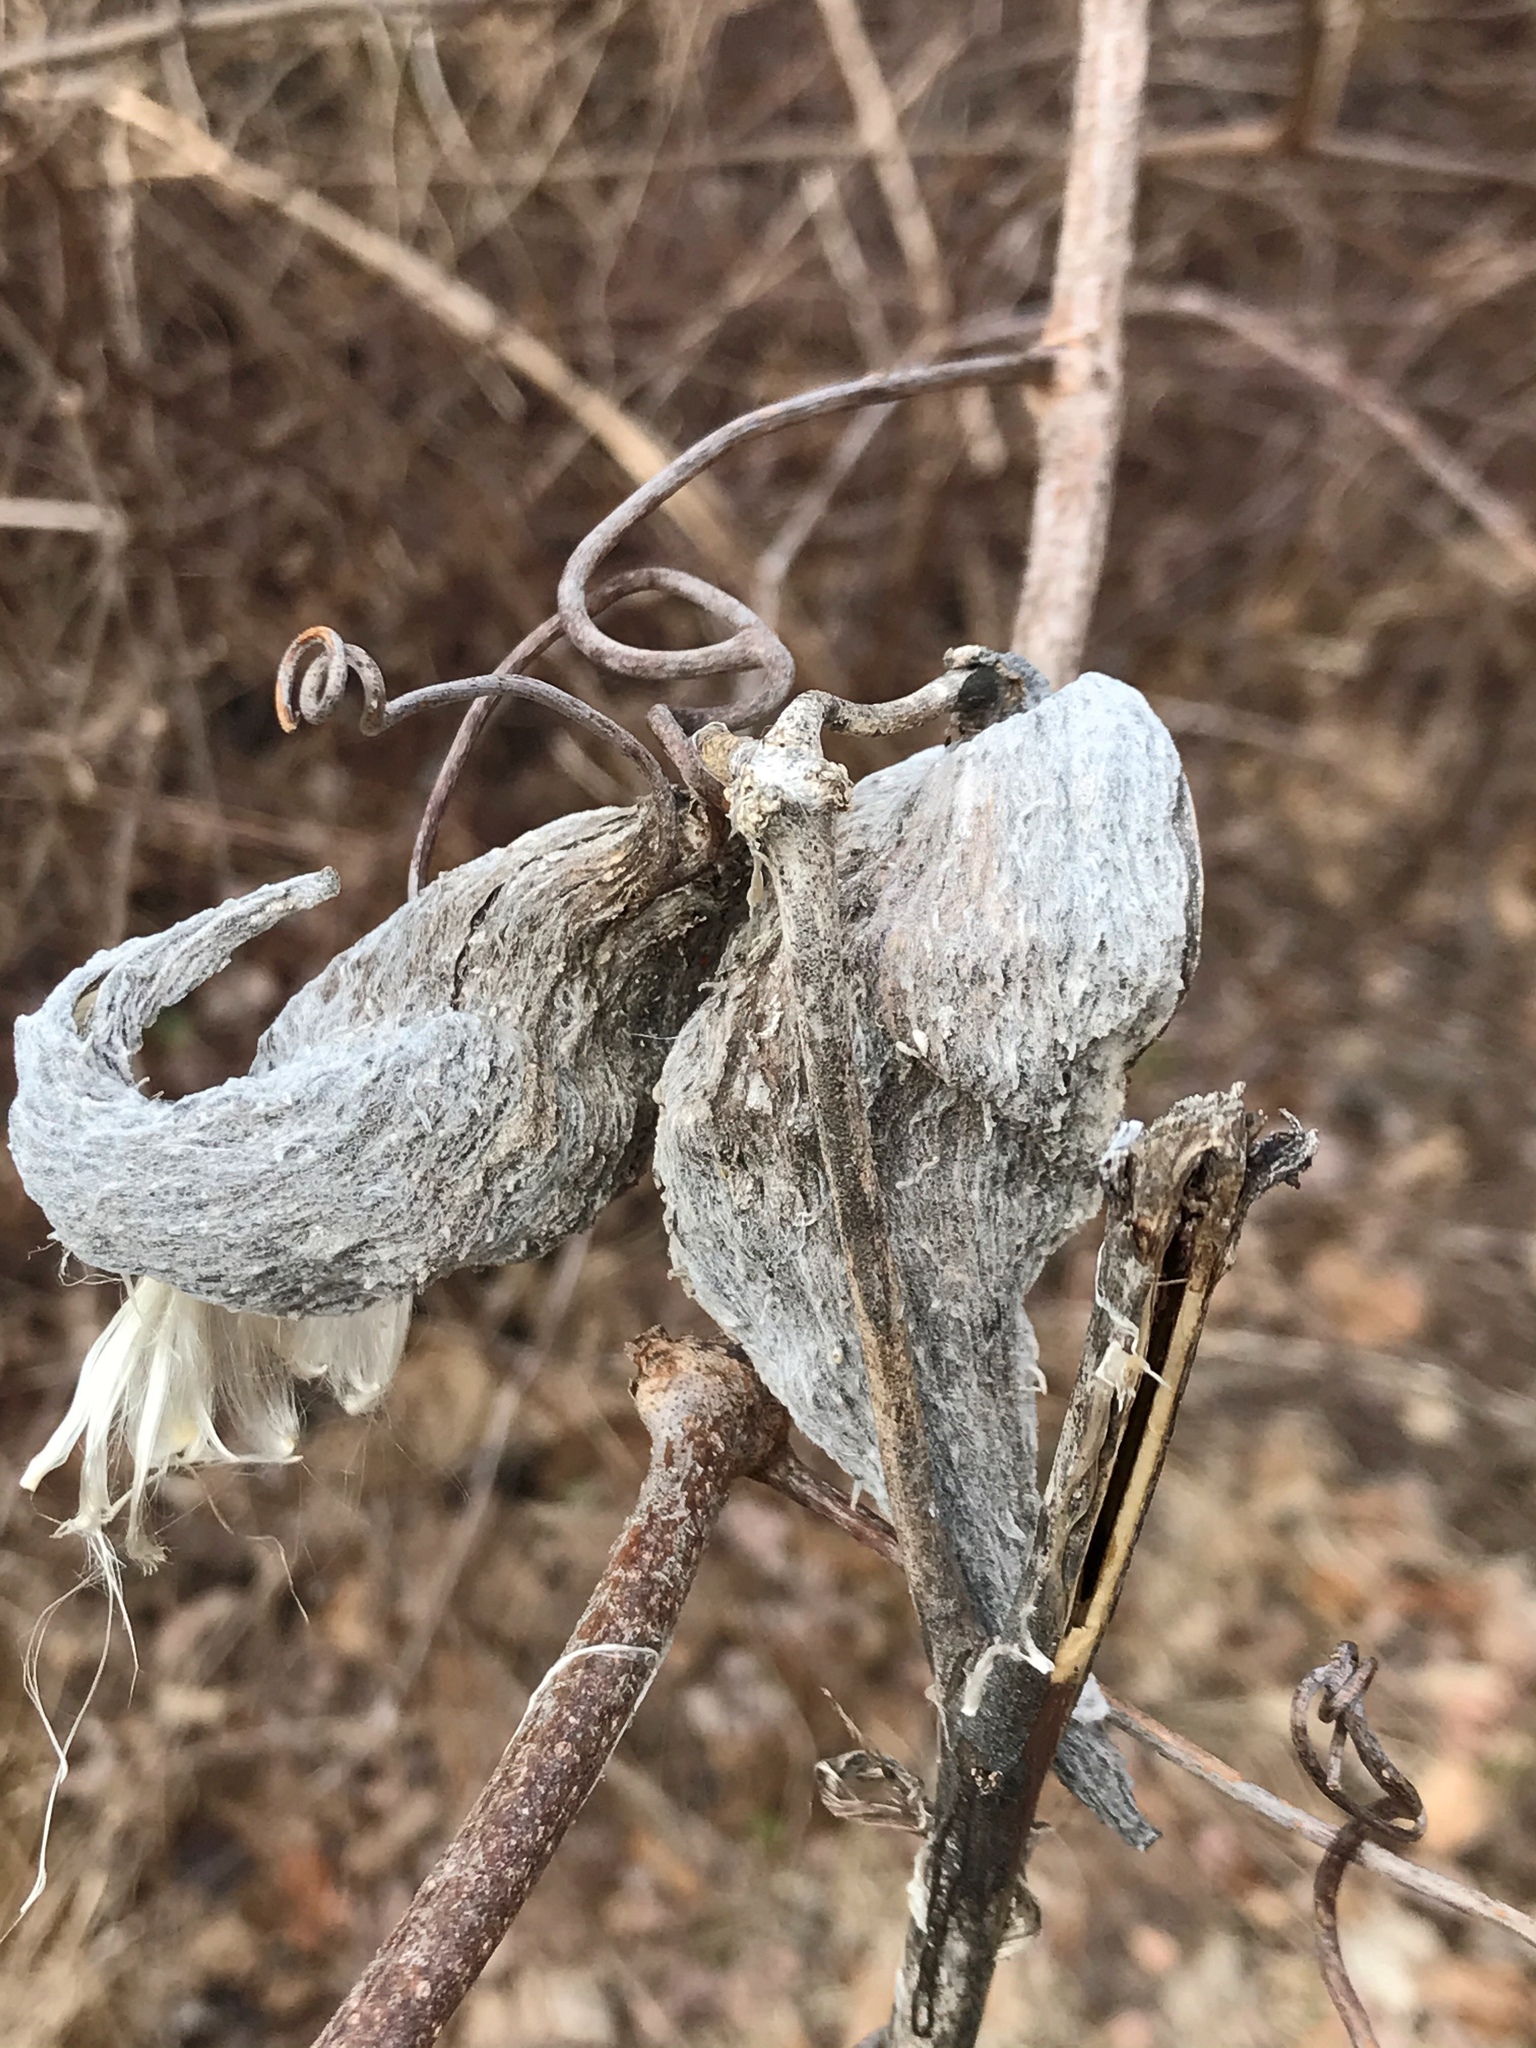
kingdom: Plantae
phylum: Tracheophyta
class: Magnoliopsida
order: Gentianales
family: Apocynaceae
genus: Asclepias
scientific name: Asclepias syriaca
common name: Common milkweed
